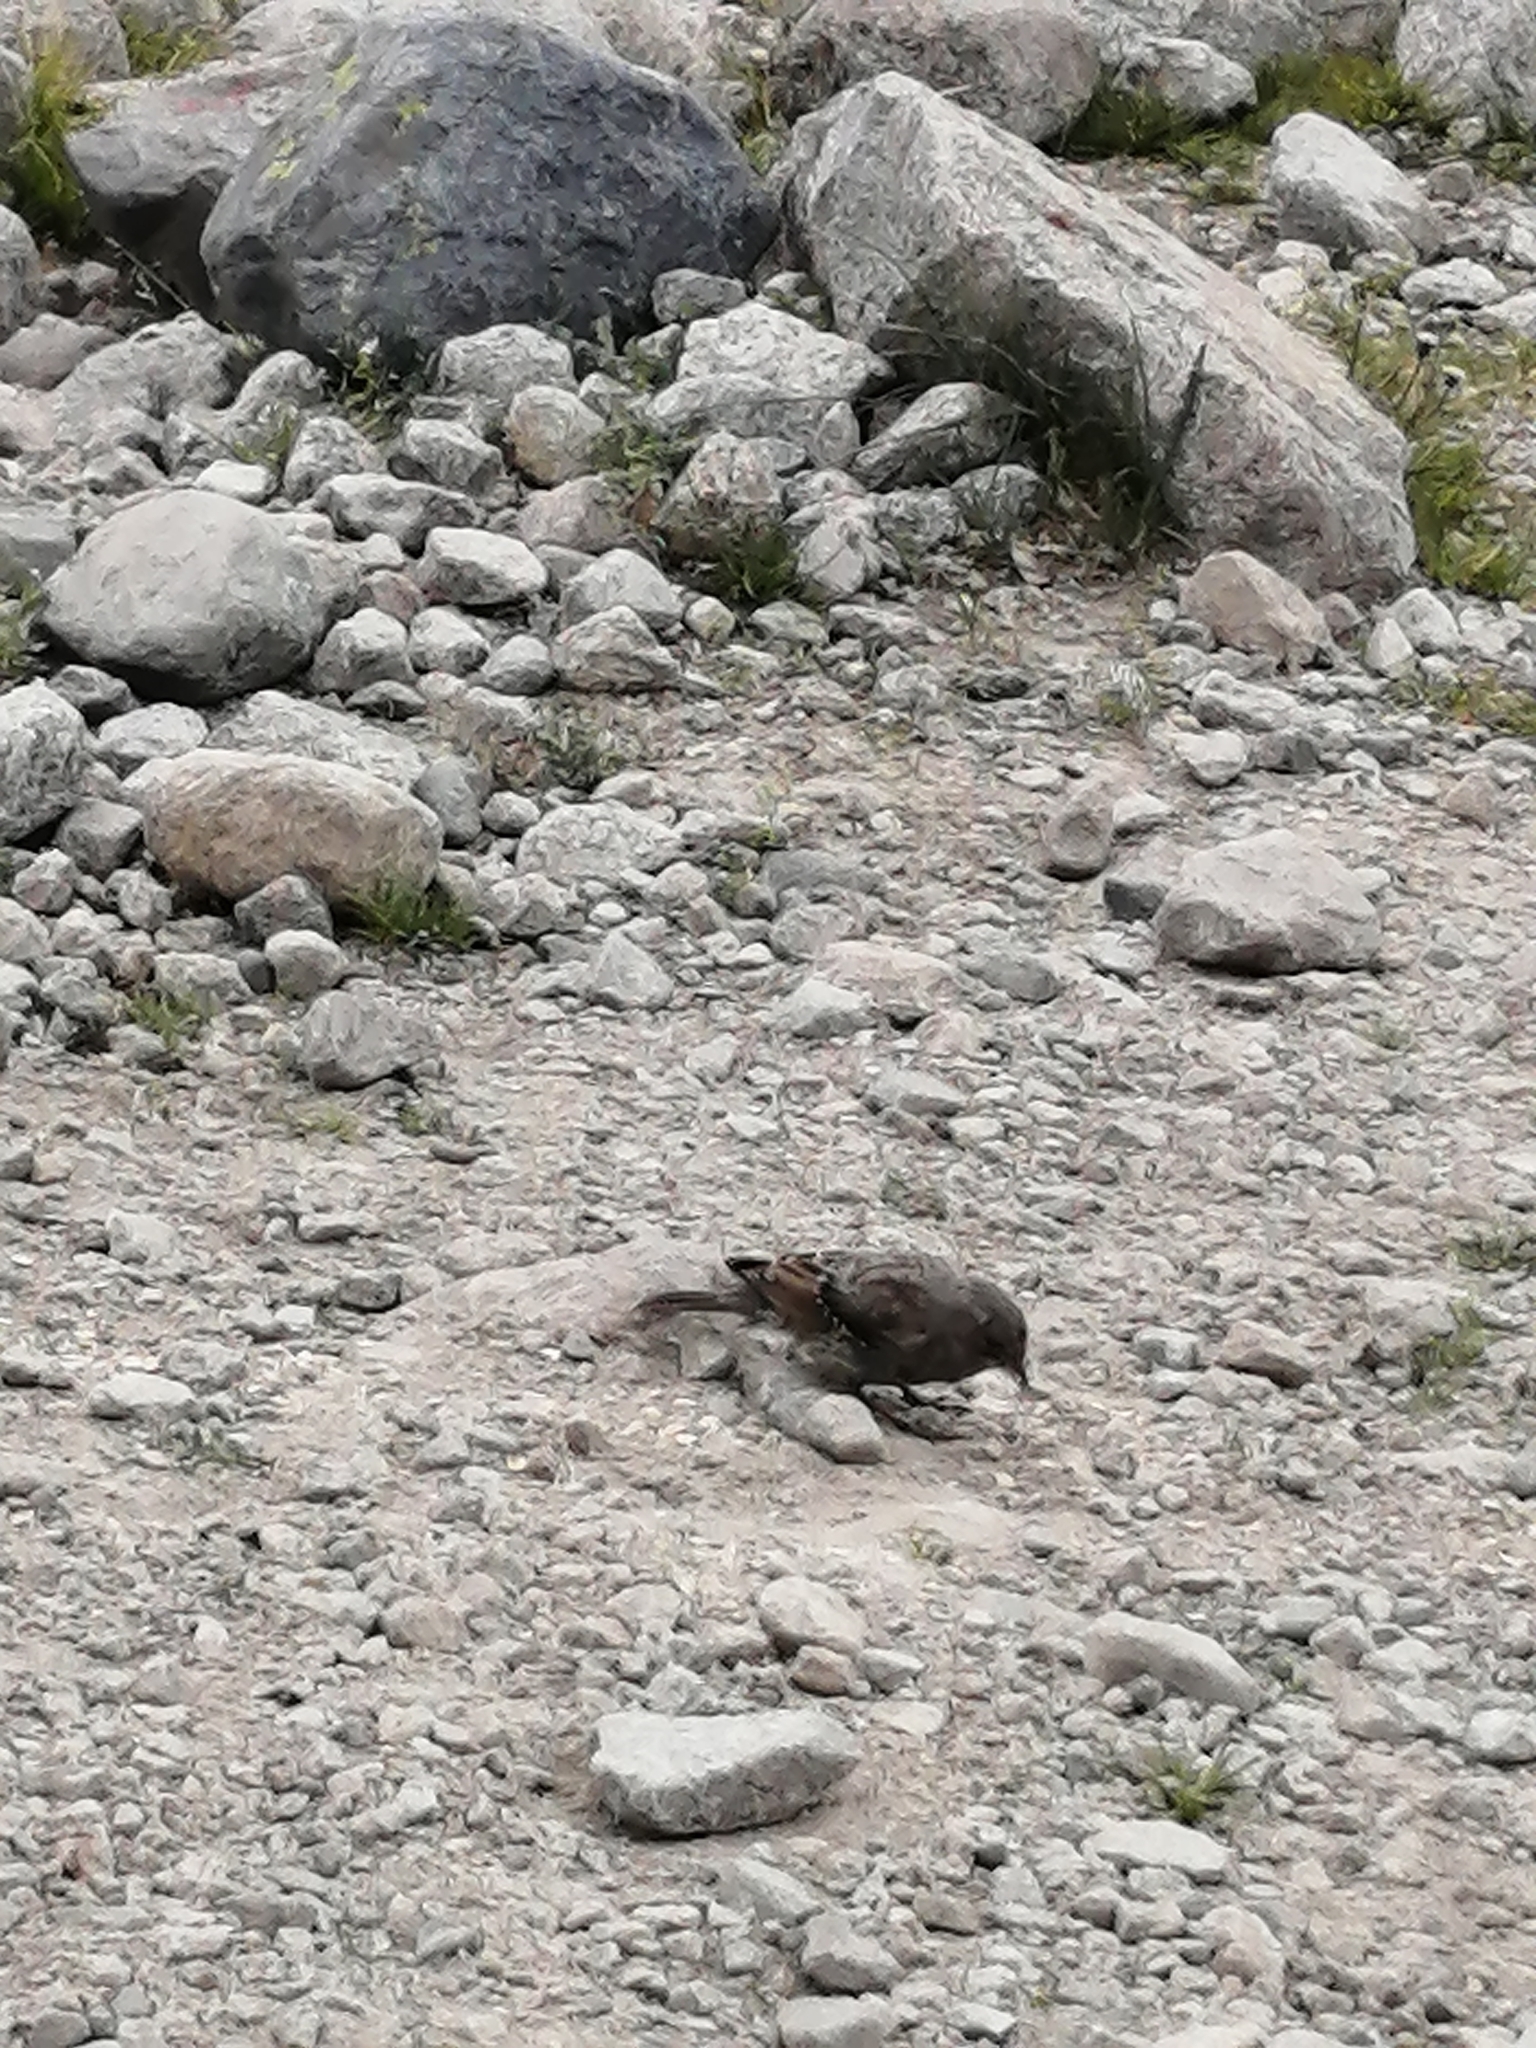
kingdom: Animalia
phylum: Chordata
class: Aves
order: Passeriformes
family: Prunellidae
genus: Prunella
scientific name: Prunella collaris
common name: Alpine accentor
